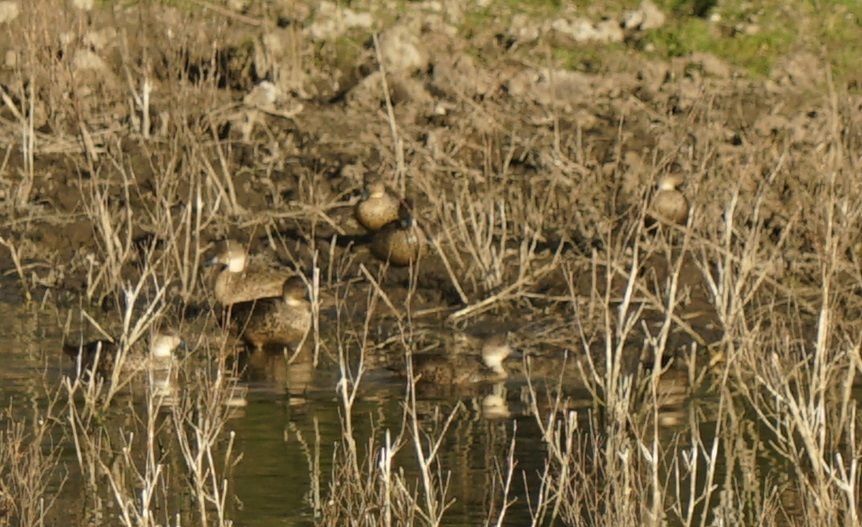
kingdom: Animalia
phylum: Chordata
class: Aves
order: Anseriformes
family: Anatidae
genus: Anas
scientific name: Anas gracilis
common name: Grey teal
